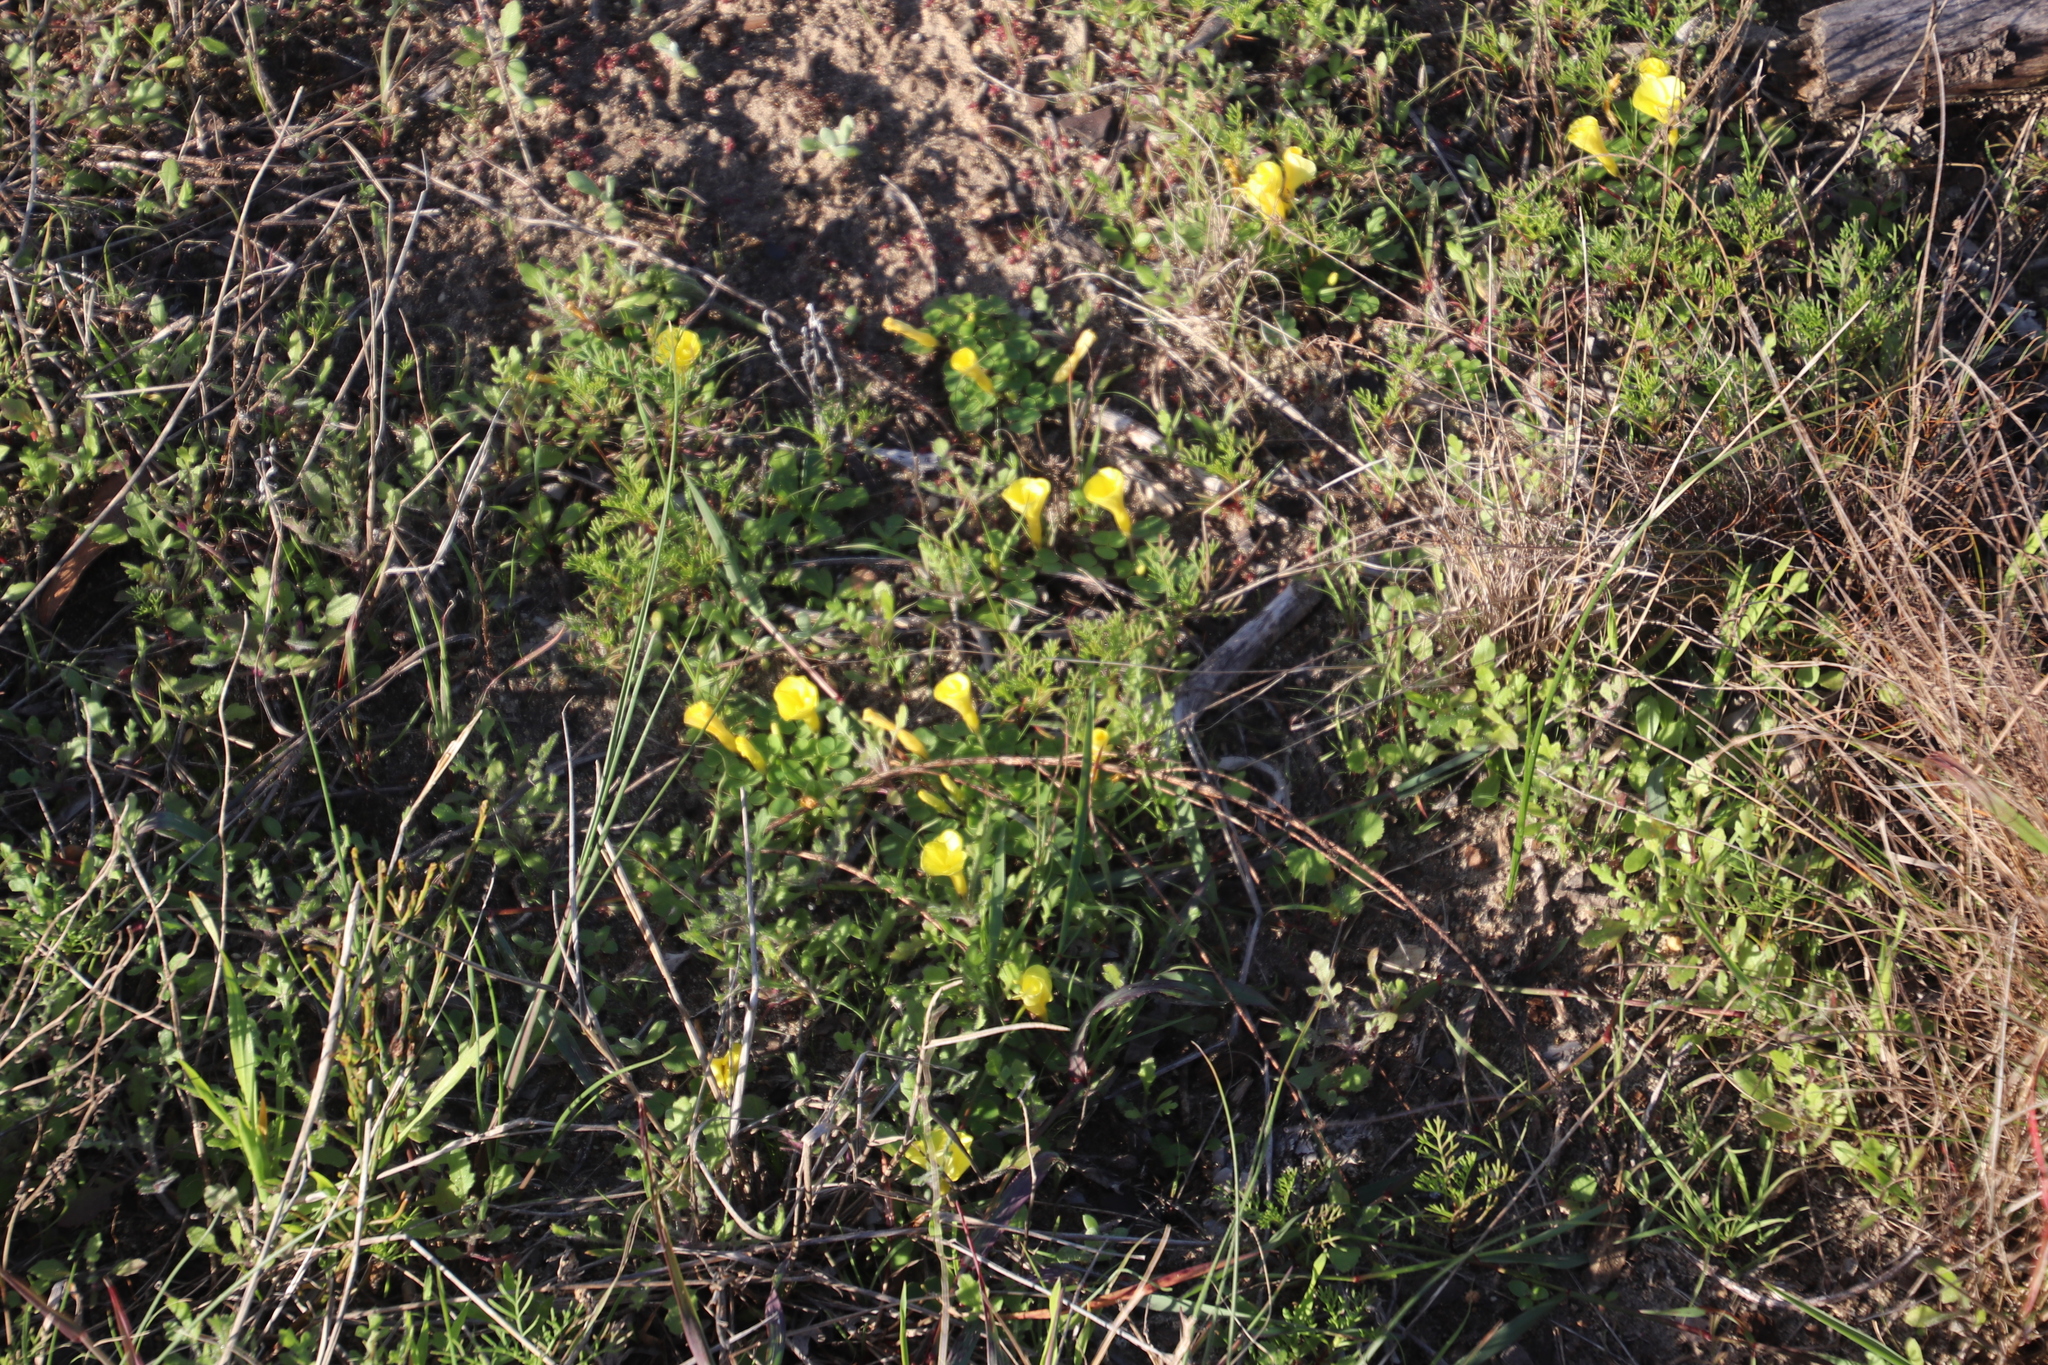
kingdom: Plantae
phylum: Tracheophyta
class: Magnoliopsida
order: Oxalidales
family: Oxalidaceae
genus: Oxalis
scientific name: Oxalis luteola
